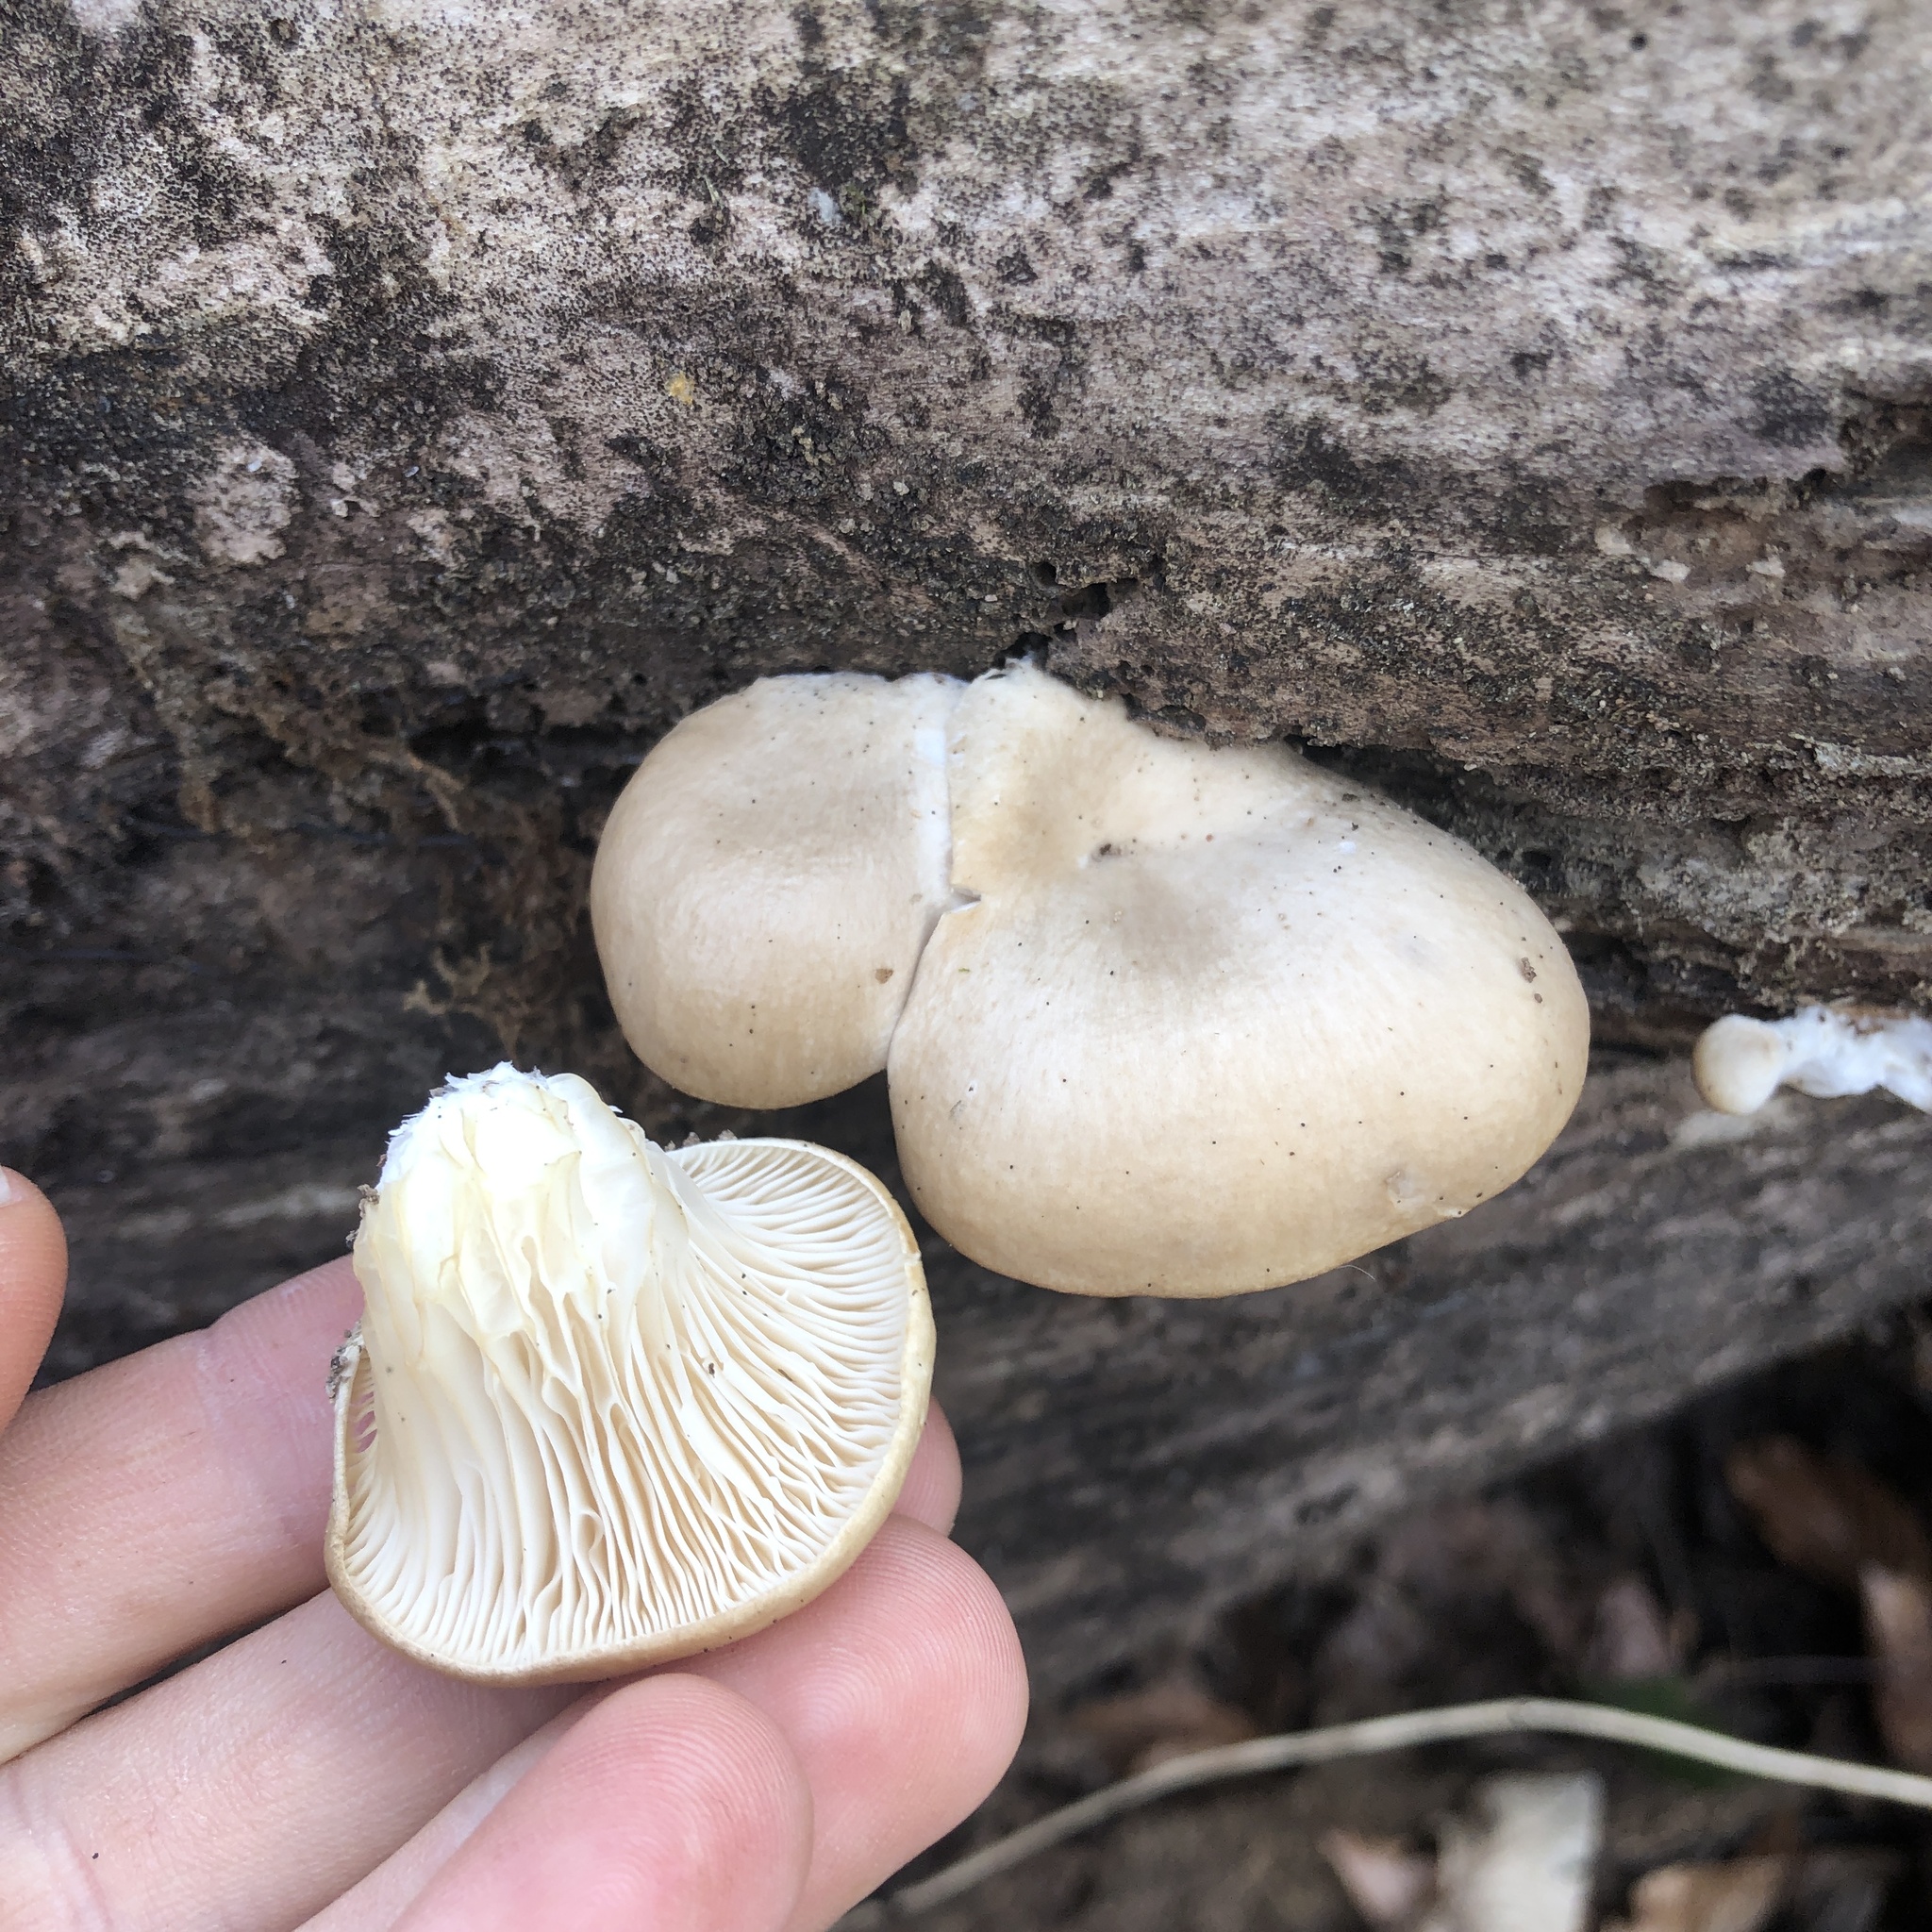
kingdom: Fungi
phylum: Basidiomycota
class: Agaricomycetes
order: Agaricales
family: Pleurotaceae
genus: Pleurotus
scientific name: Pleurotus ostreatus
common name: Oyster mushroom
